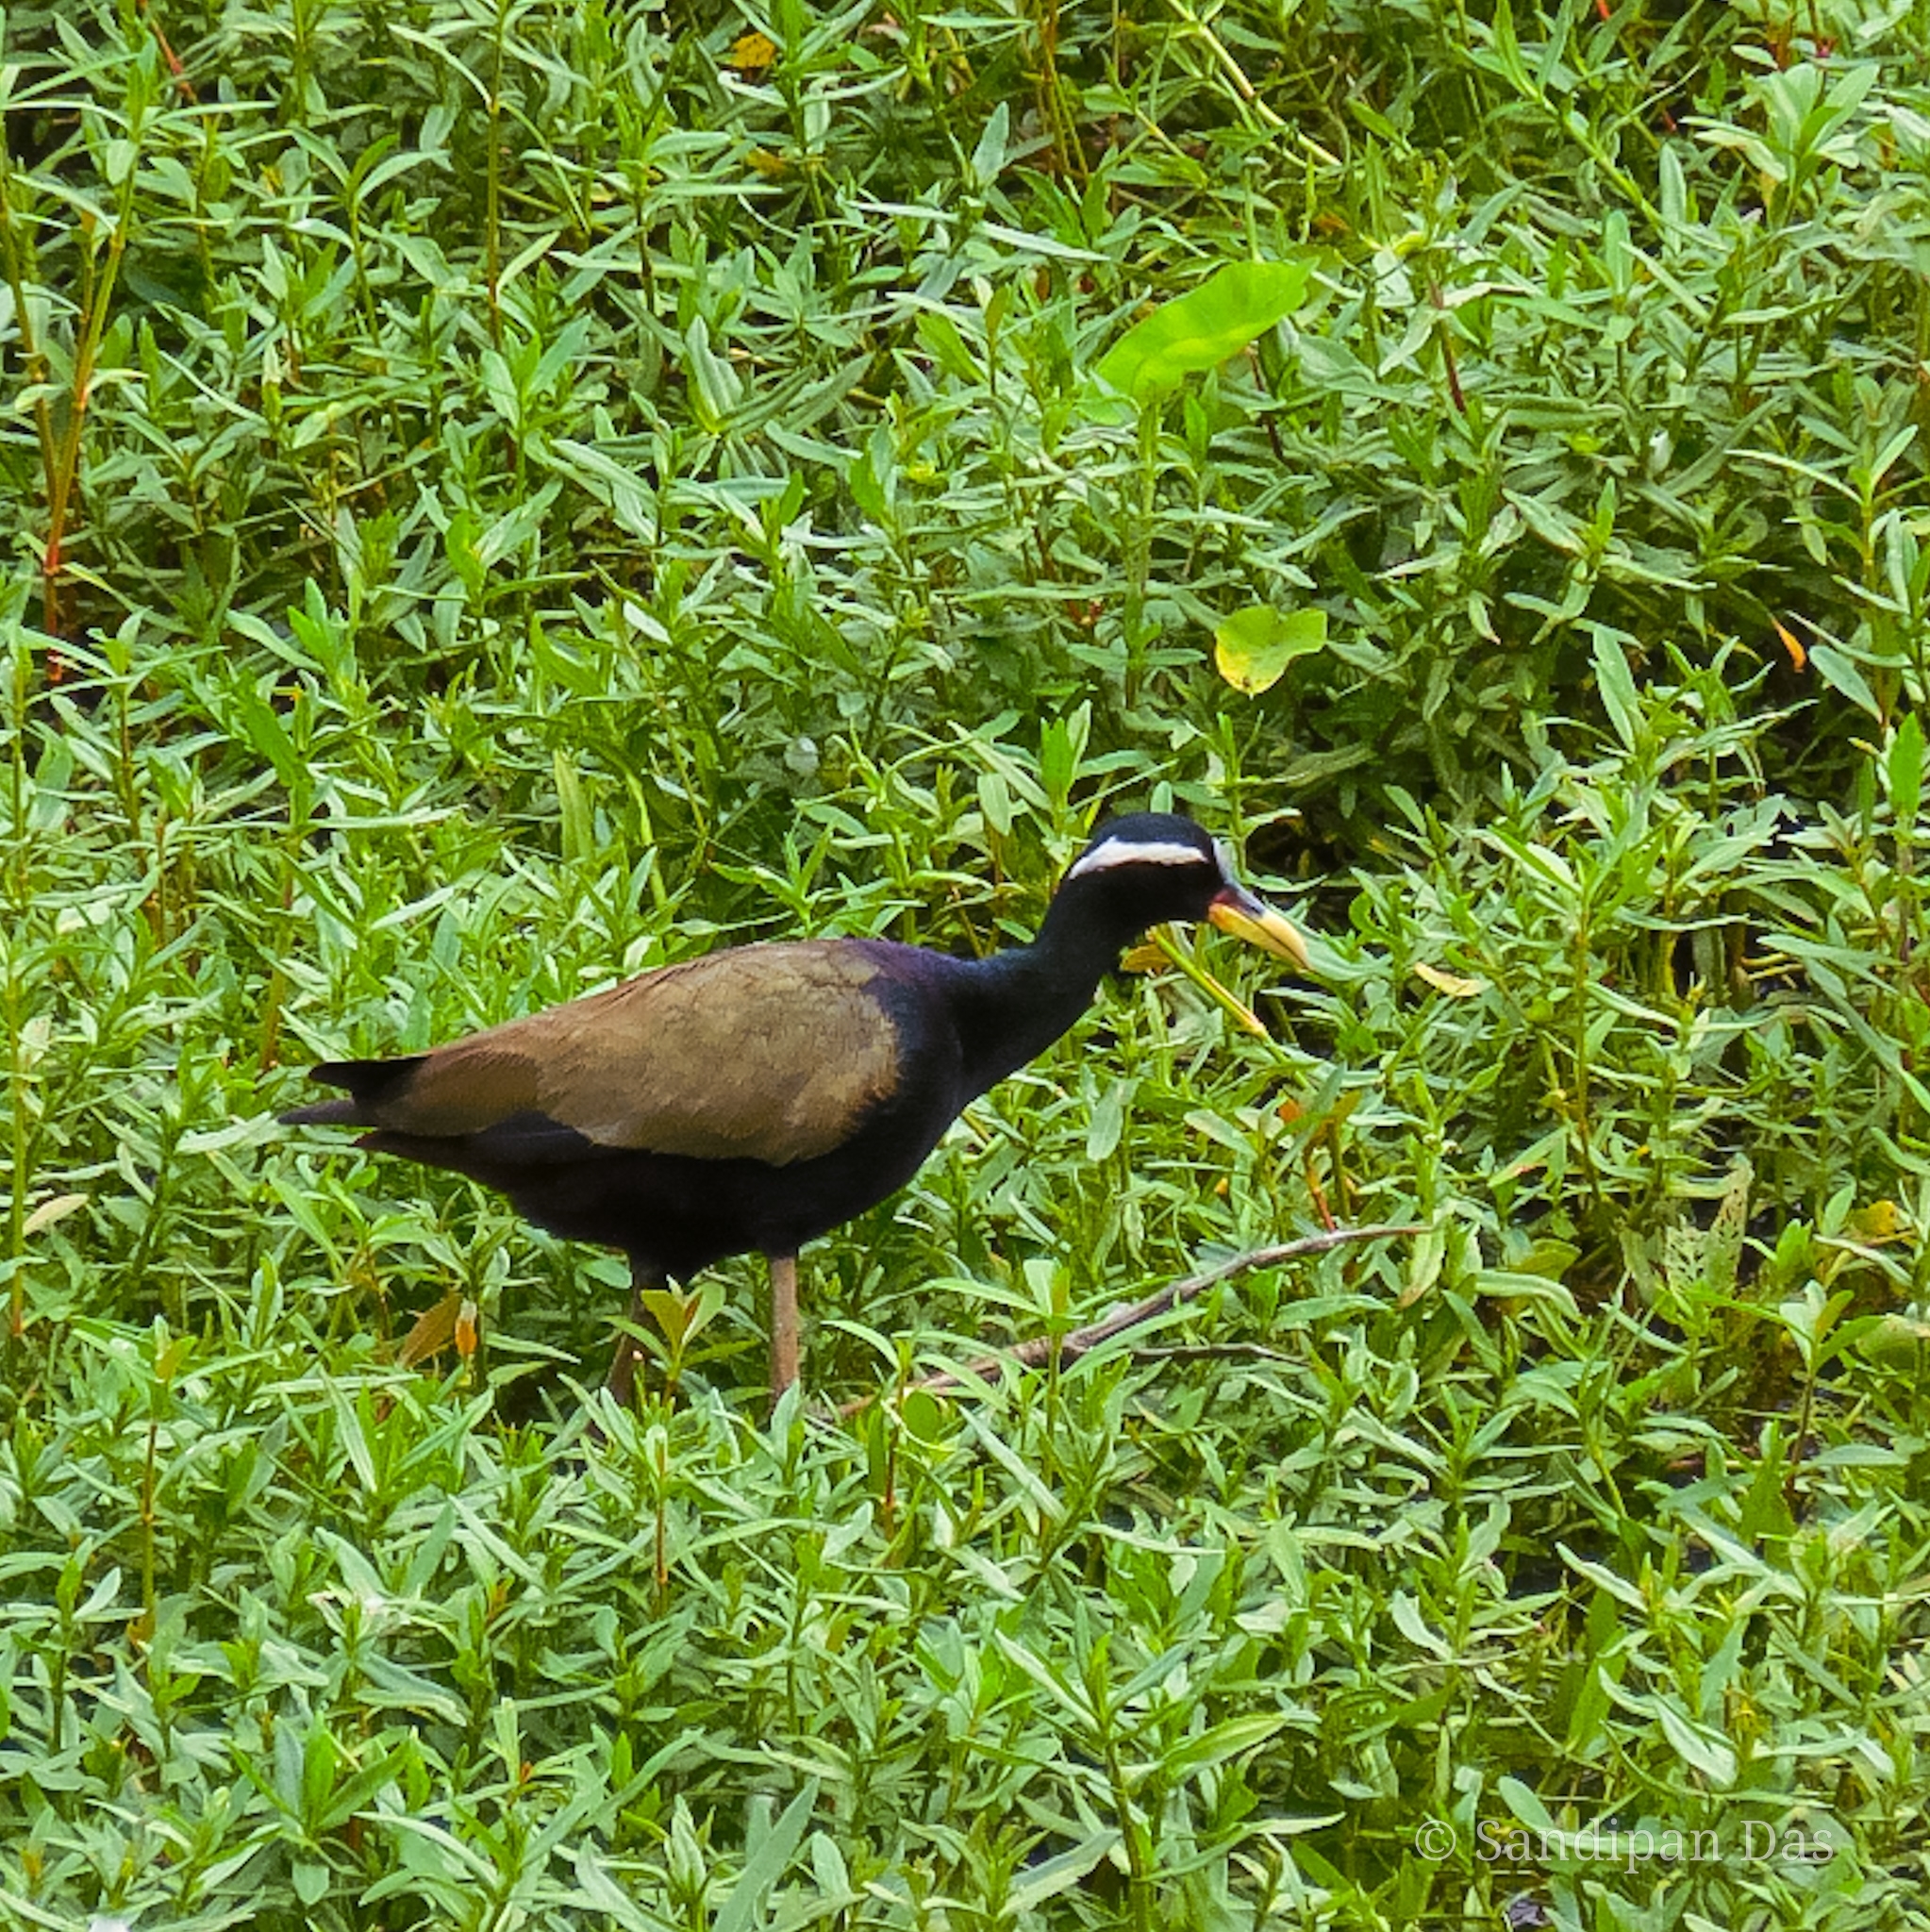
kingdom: Animalia
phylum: Chordata
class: Aves
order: Charadriiformes
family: Jacanidae
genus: Metopidius
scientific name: Metopidius indicus
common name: Bronze-winged jacana
